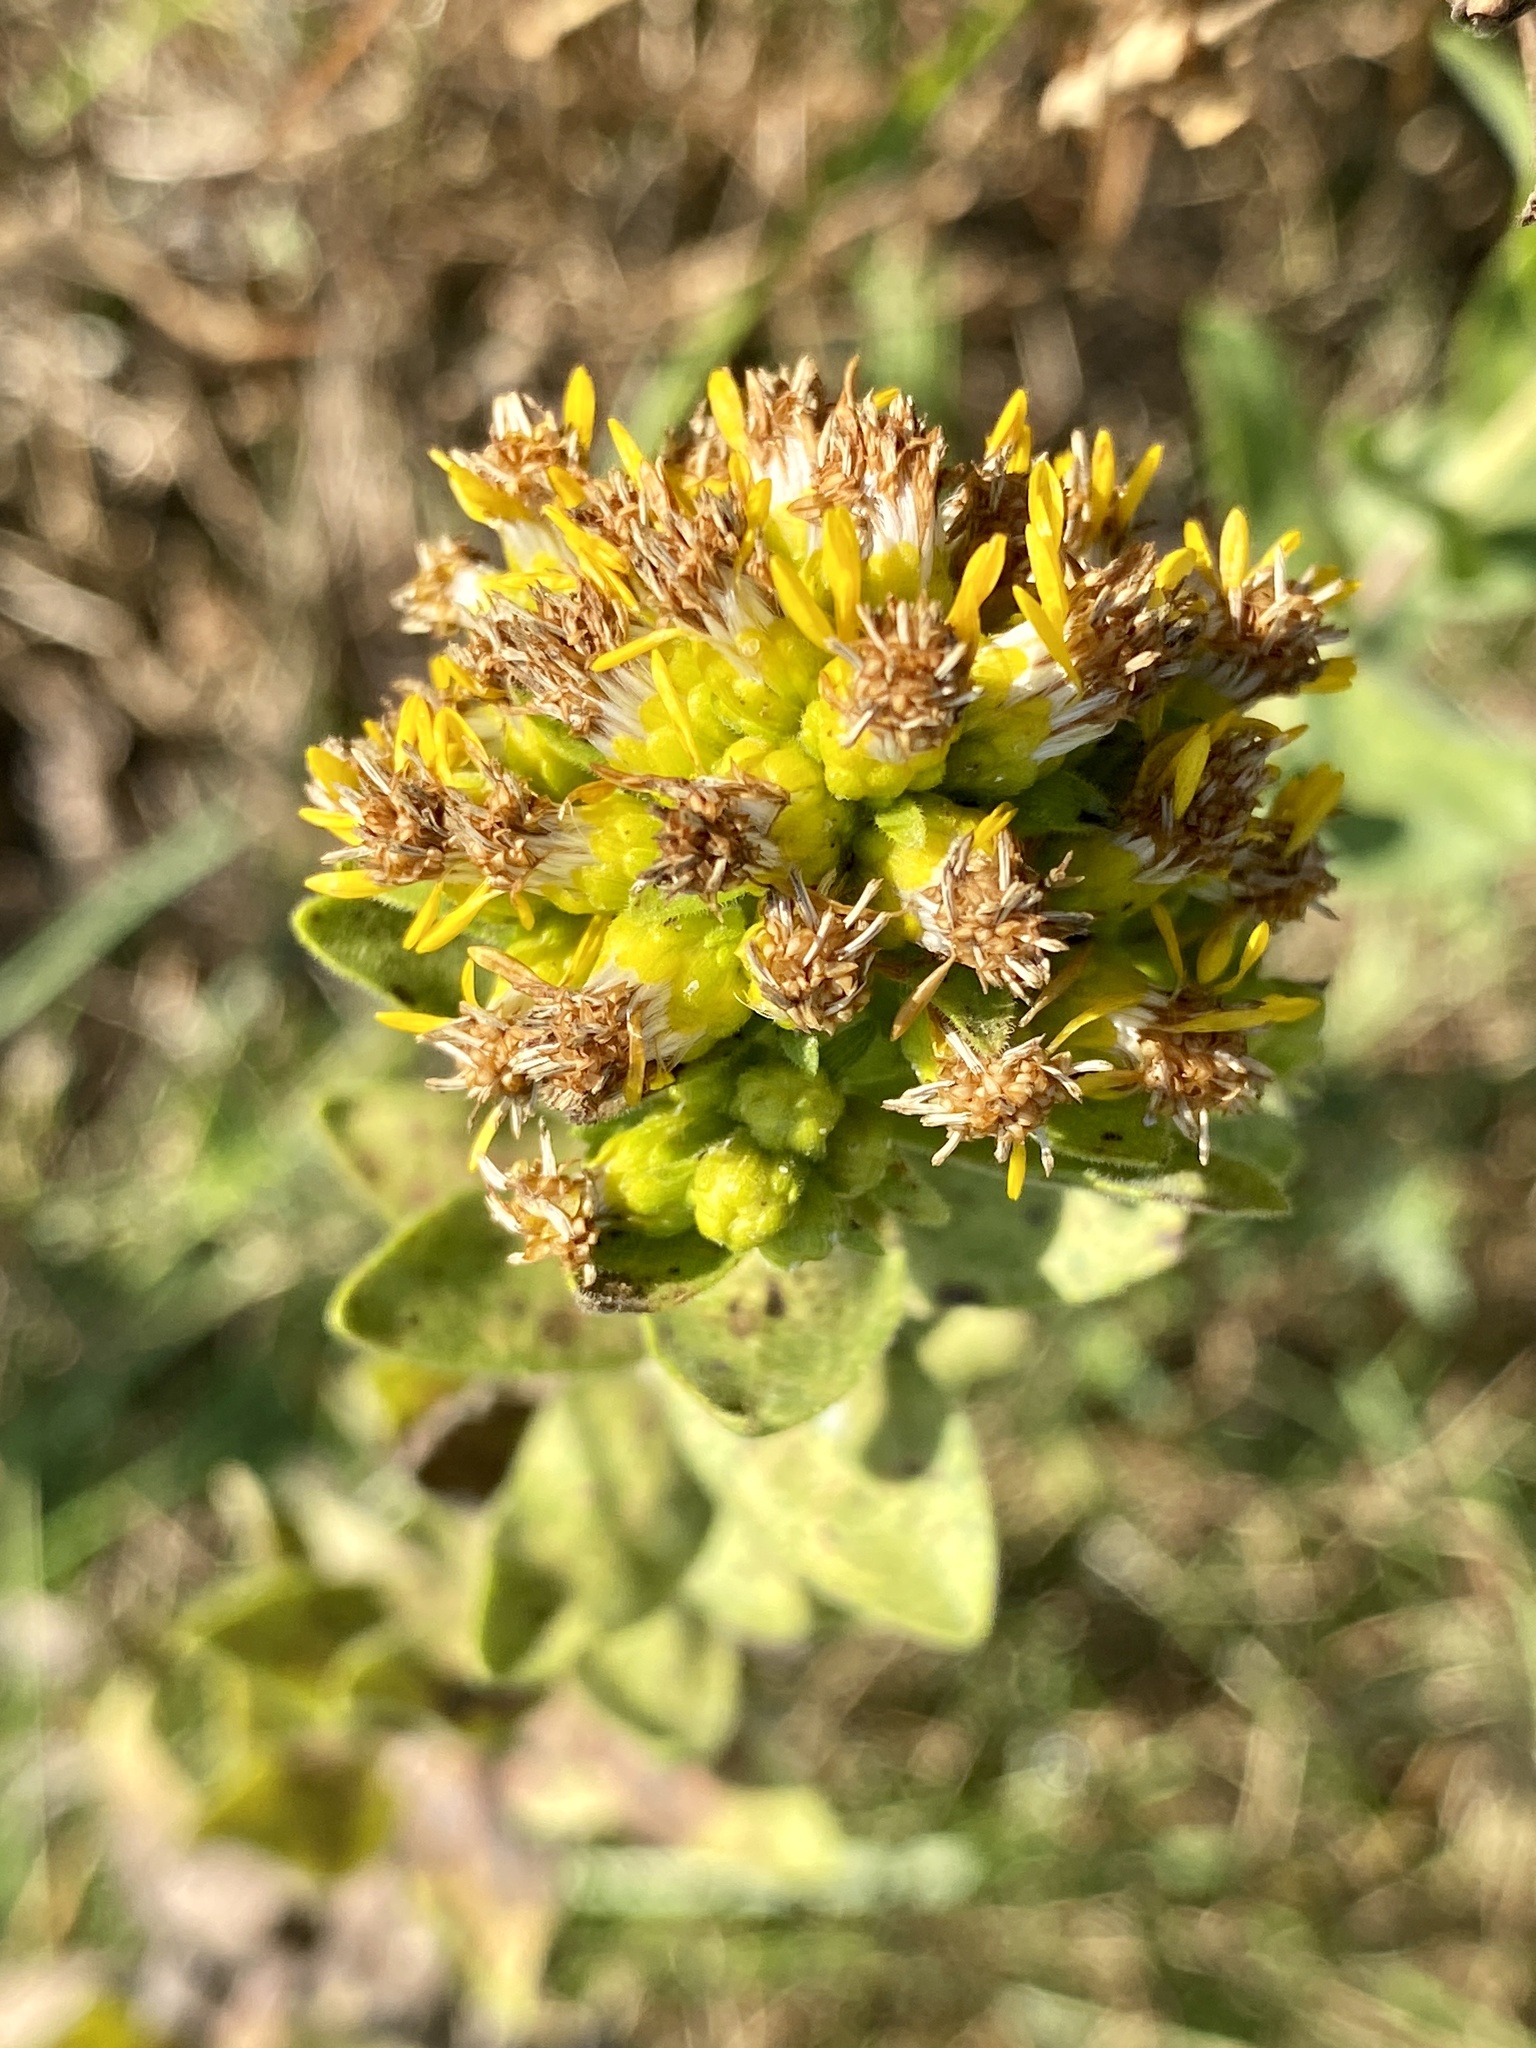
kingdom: Plantae
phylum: Tracheophyta
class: Magnoliopsida
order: Asterales
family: Asteraceae
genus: Solidago
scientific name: Solidago rigida
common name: Rigid goldenrod
